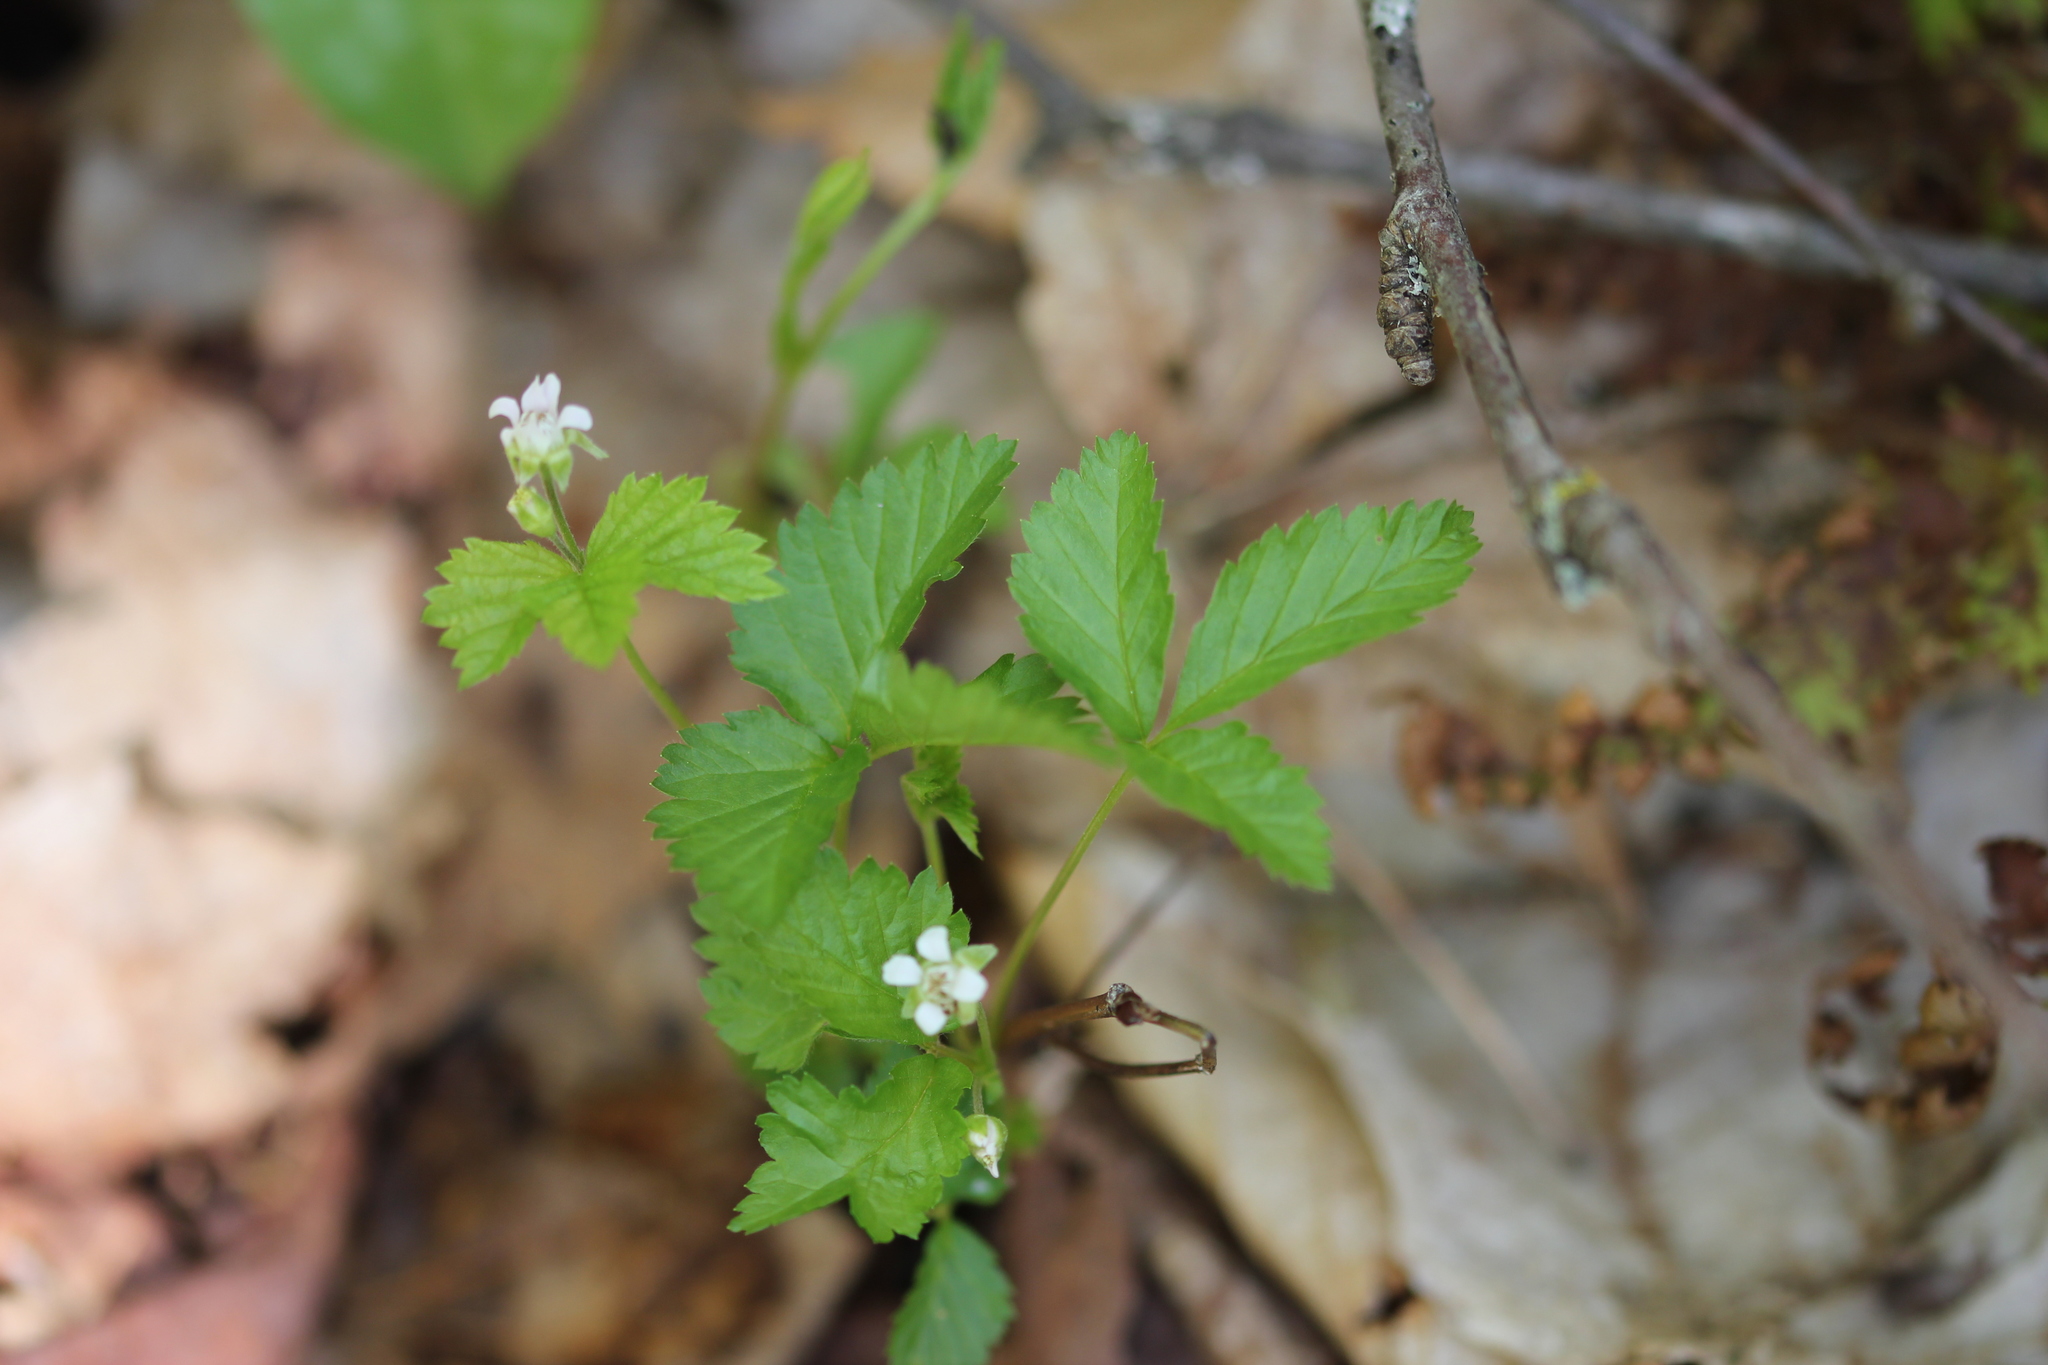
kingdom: Plantae
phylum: Tracheophyta
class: Magnoliopsida
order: Rosales
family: Rosaceae
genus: Rubus
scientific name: Rubus pubescens
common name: Dwarf raspberry
